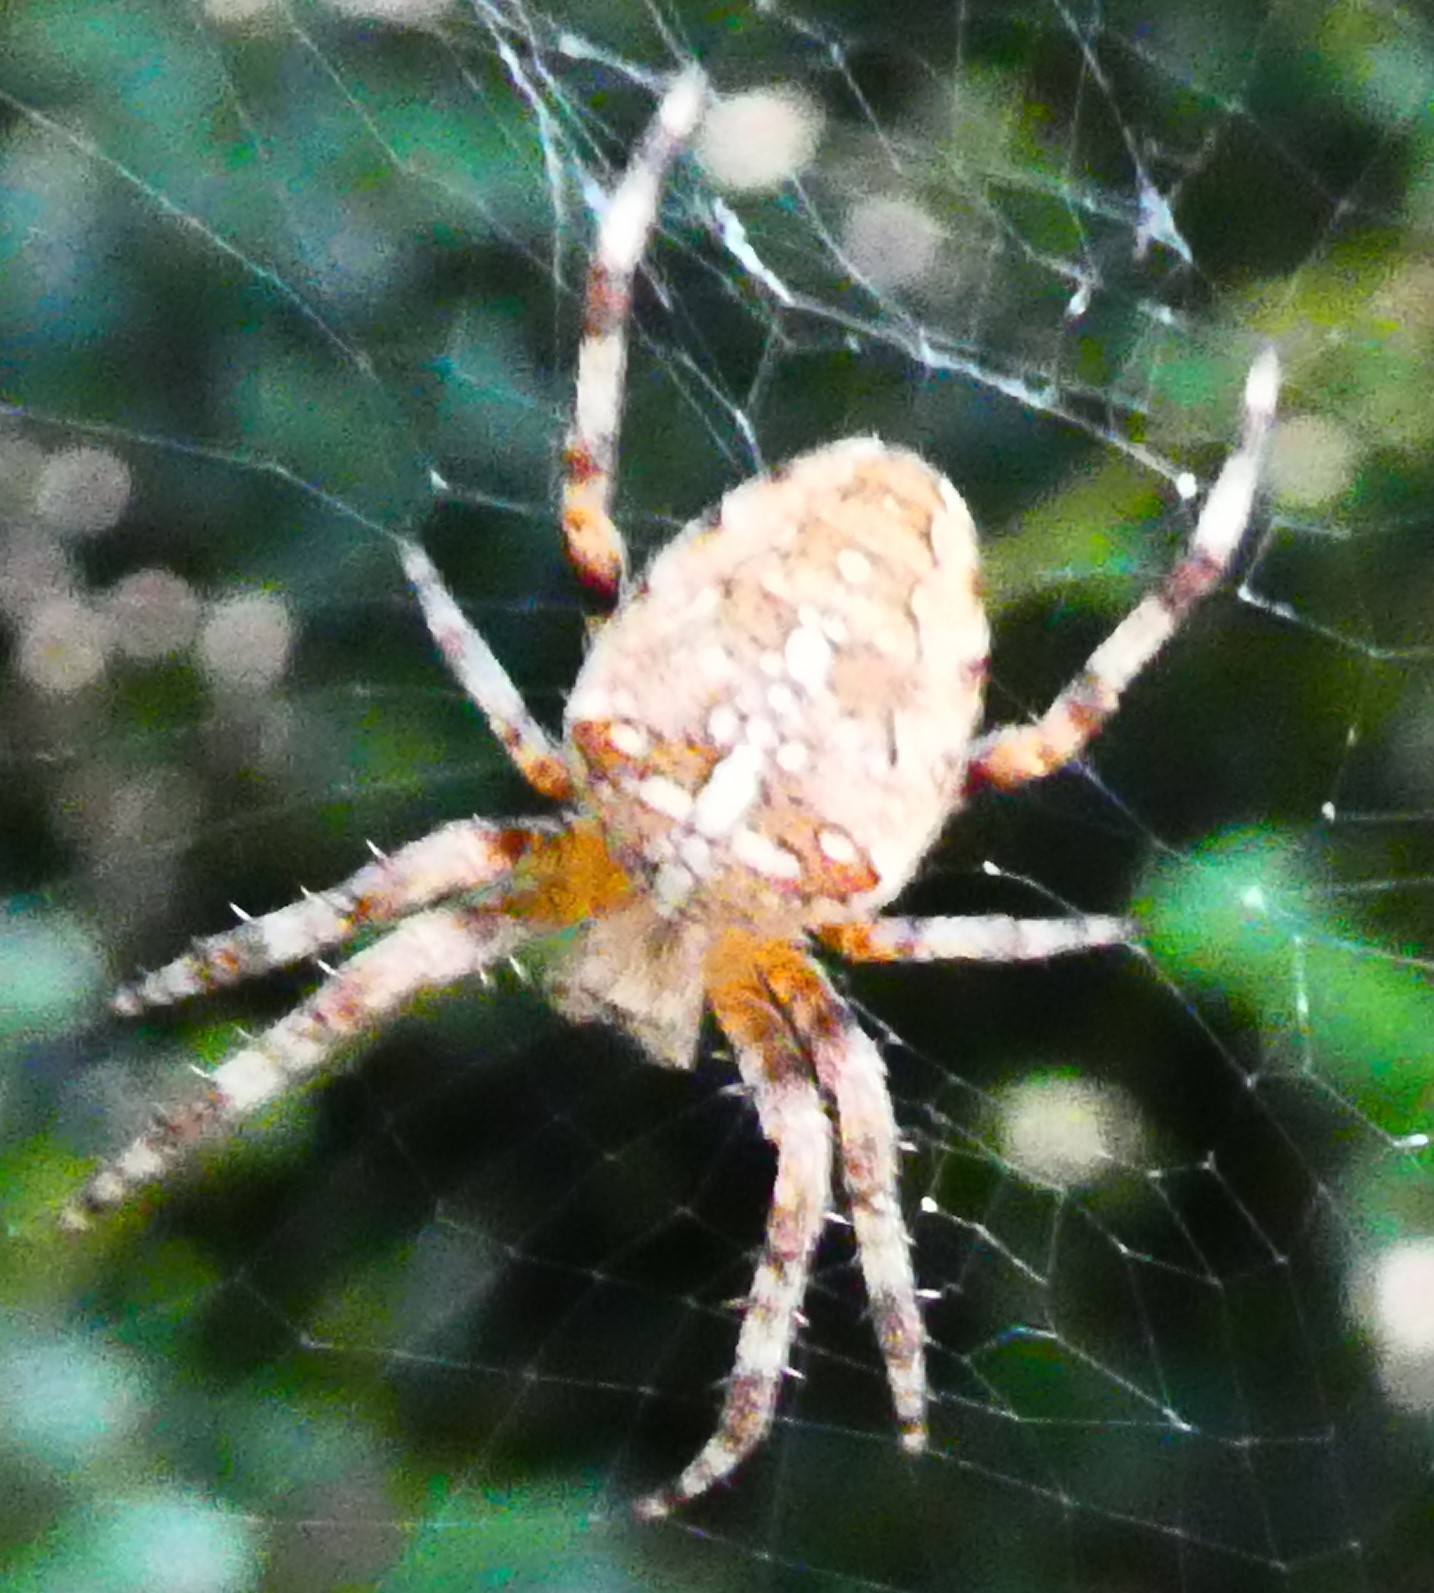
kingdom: Animalia
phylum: Arthropoda
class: Arachnida
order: Araneae
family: Araneidae
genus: Araneus
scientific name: Araneus diadematus
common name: Cross orbweaver
